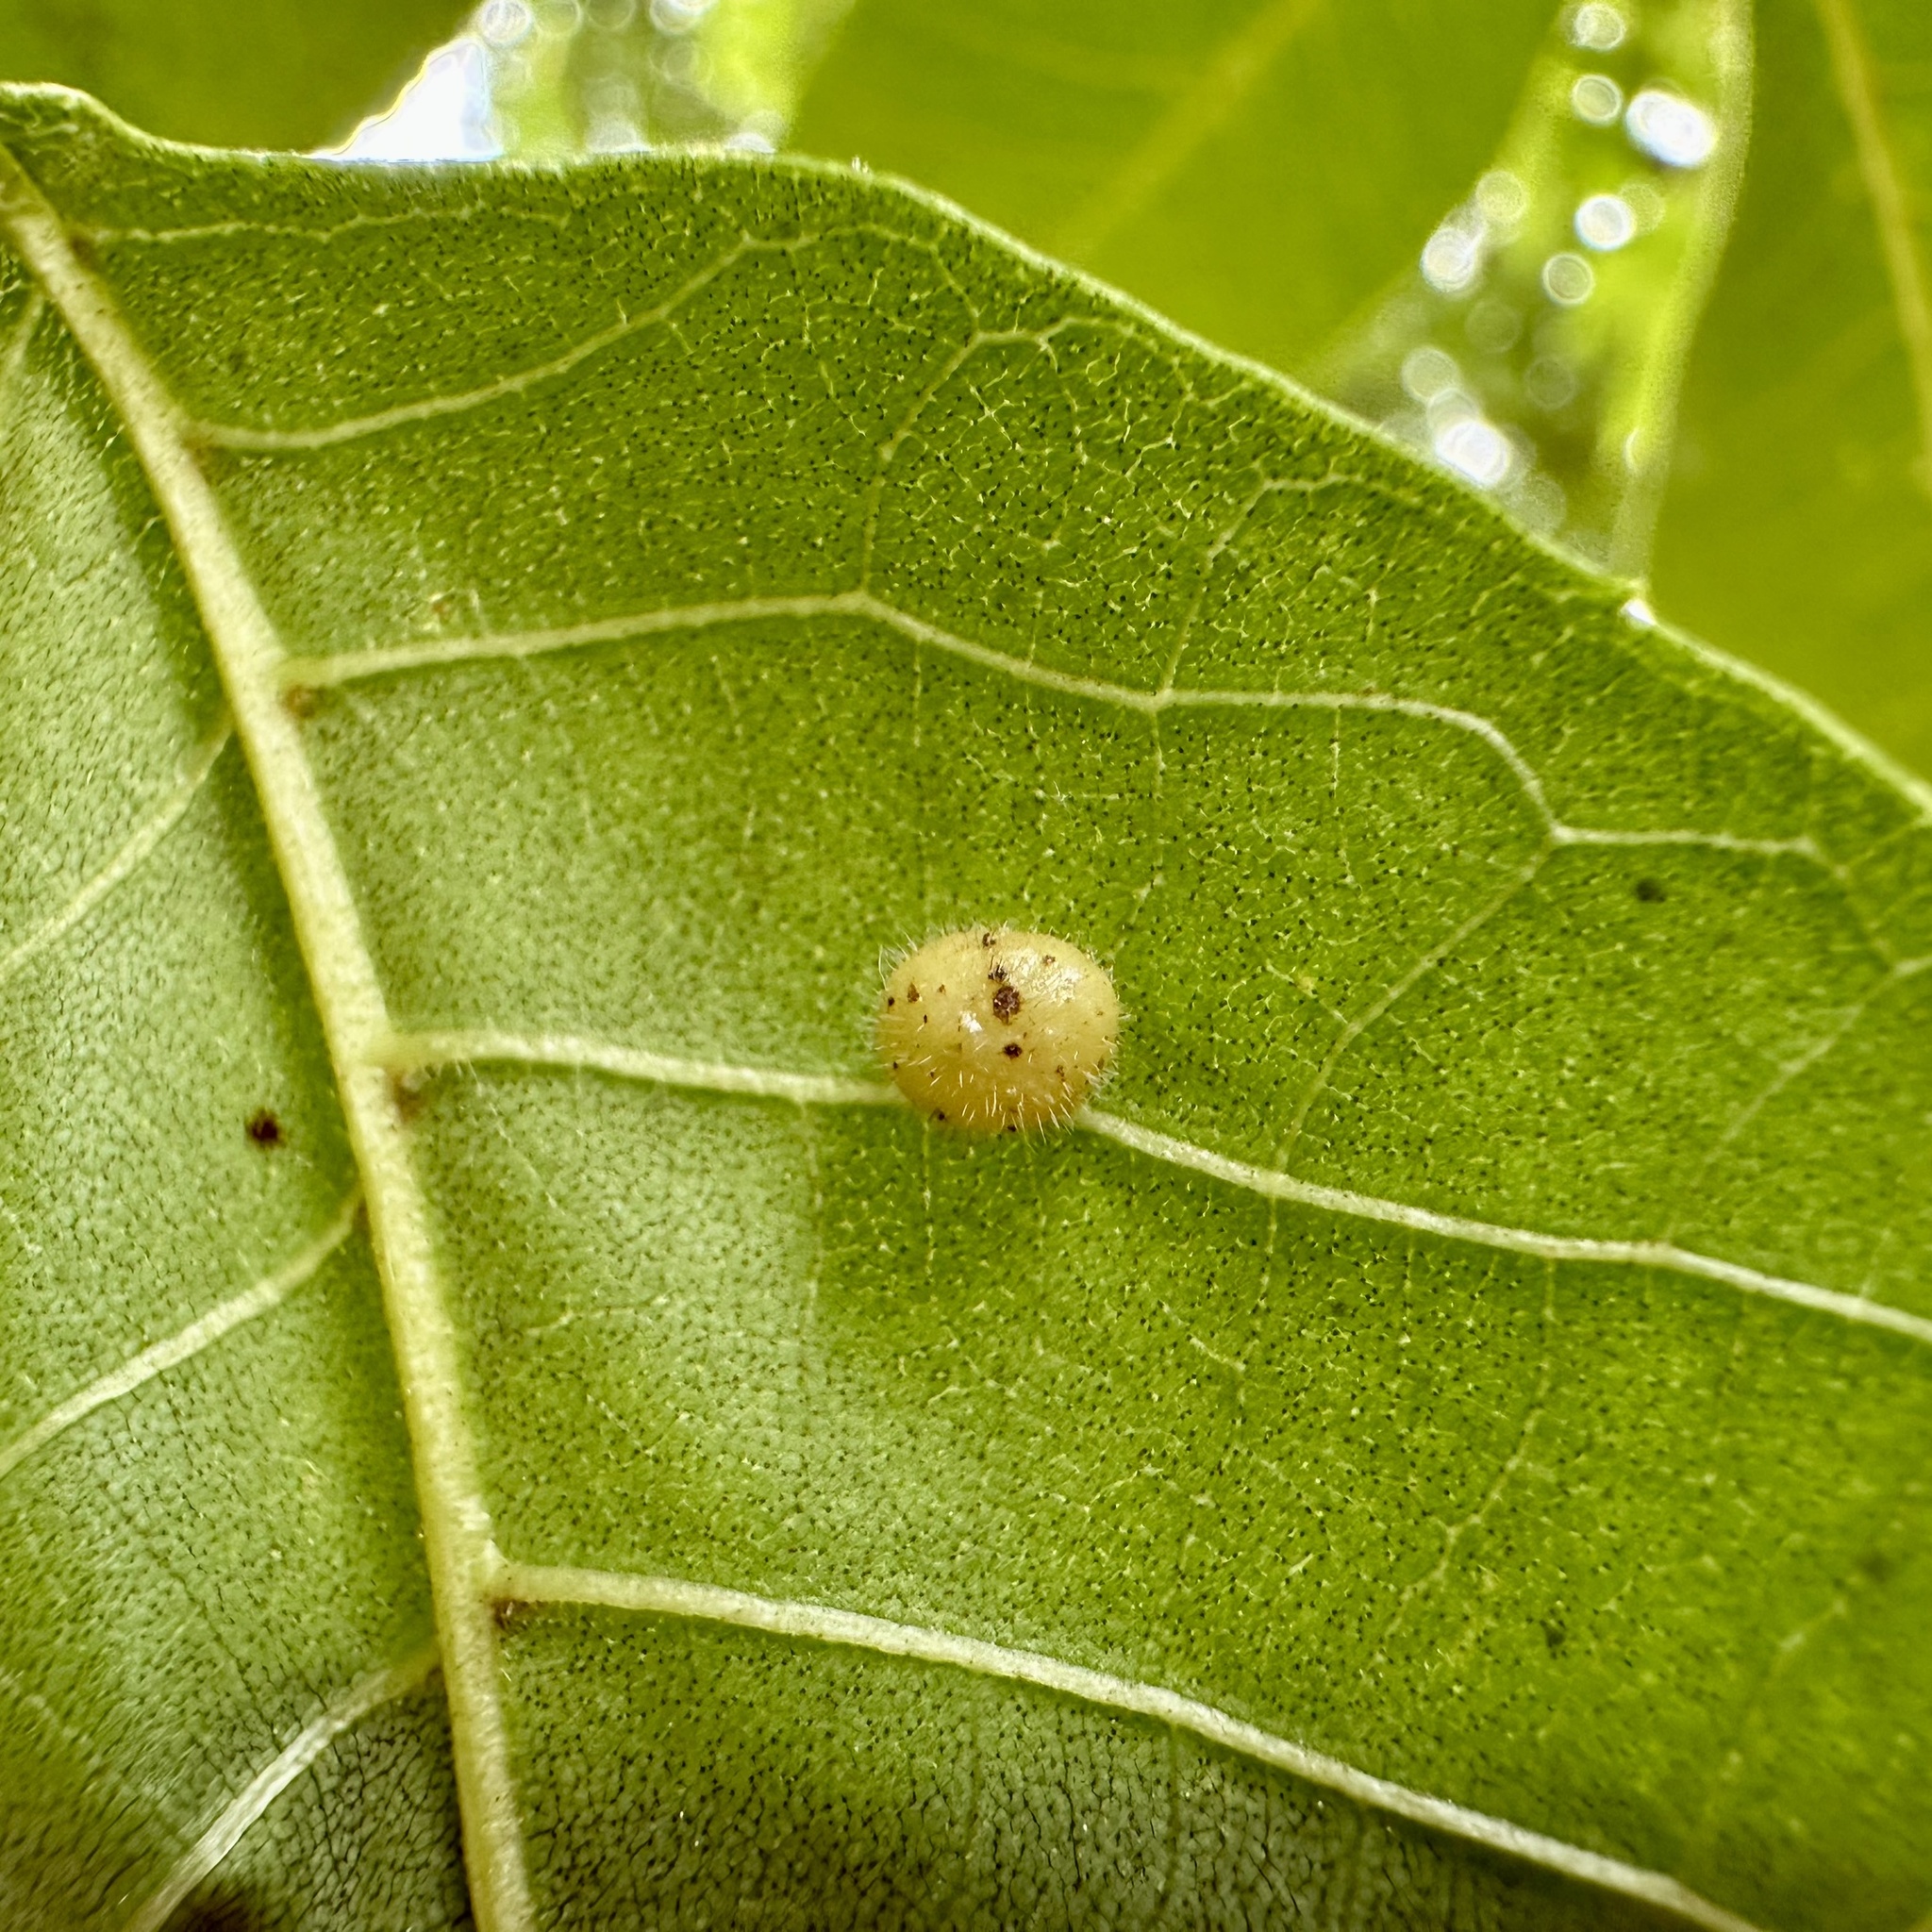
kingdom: Animalia
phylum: Arthropoda
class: Insecta
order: Diptera
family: Cecidomyiidae
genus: Caryomyia
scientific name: Caryomyia thompsoni
